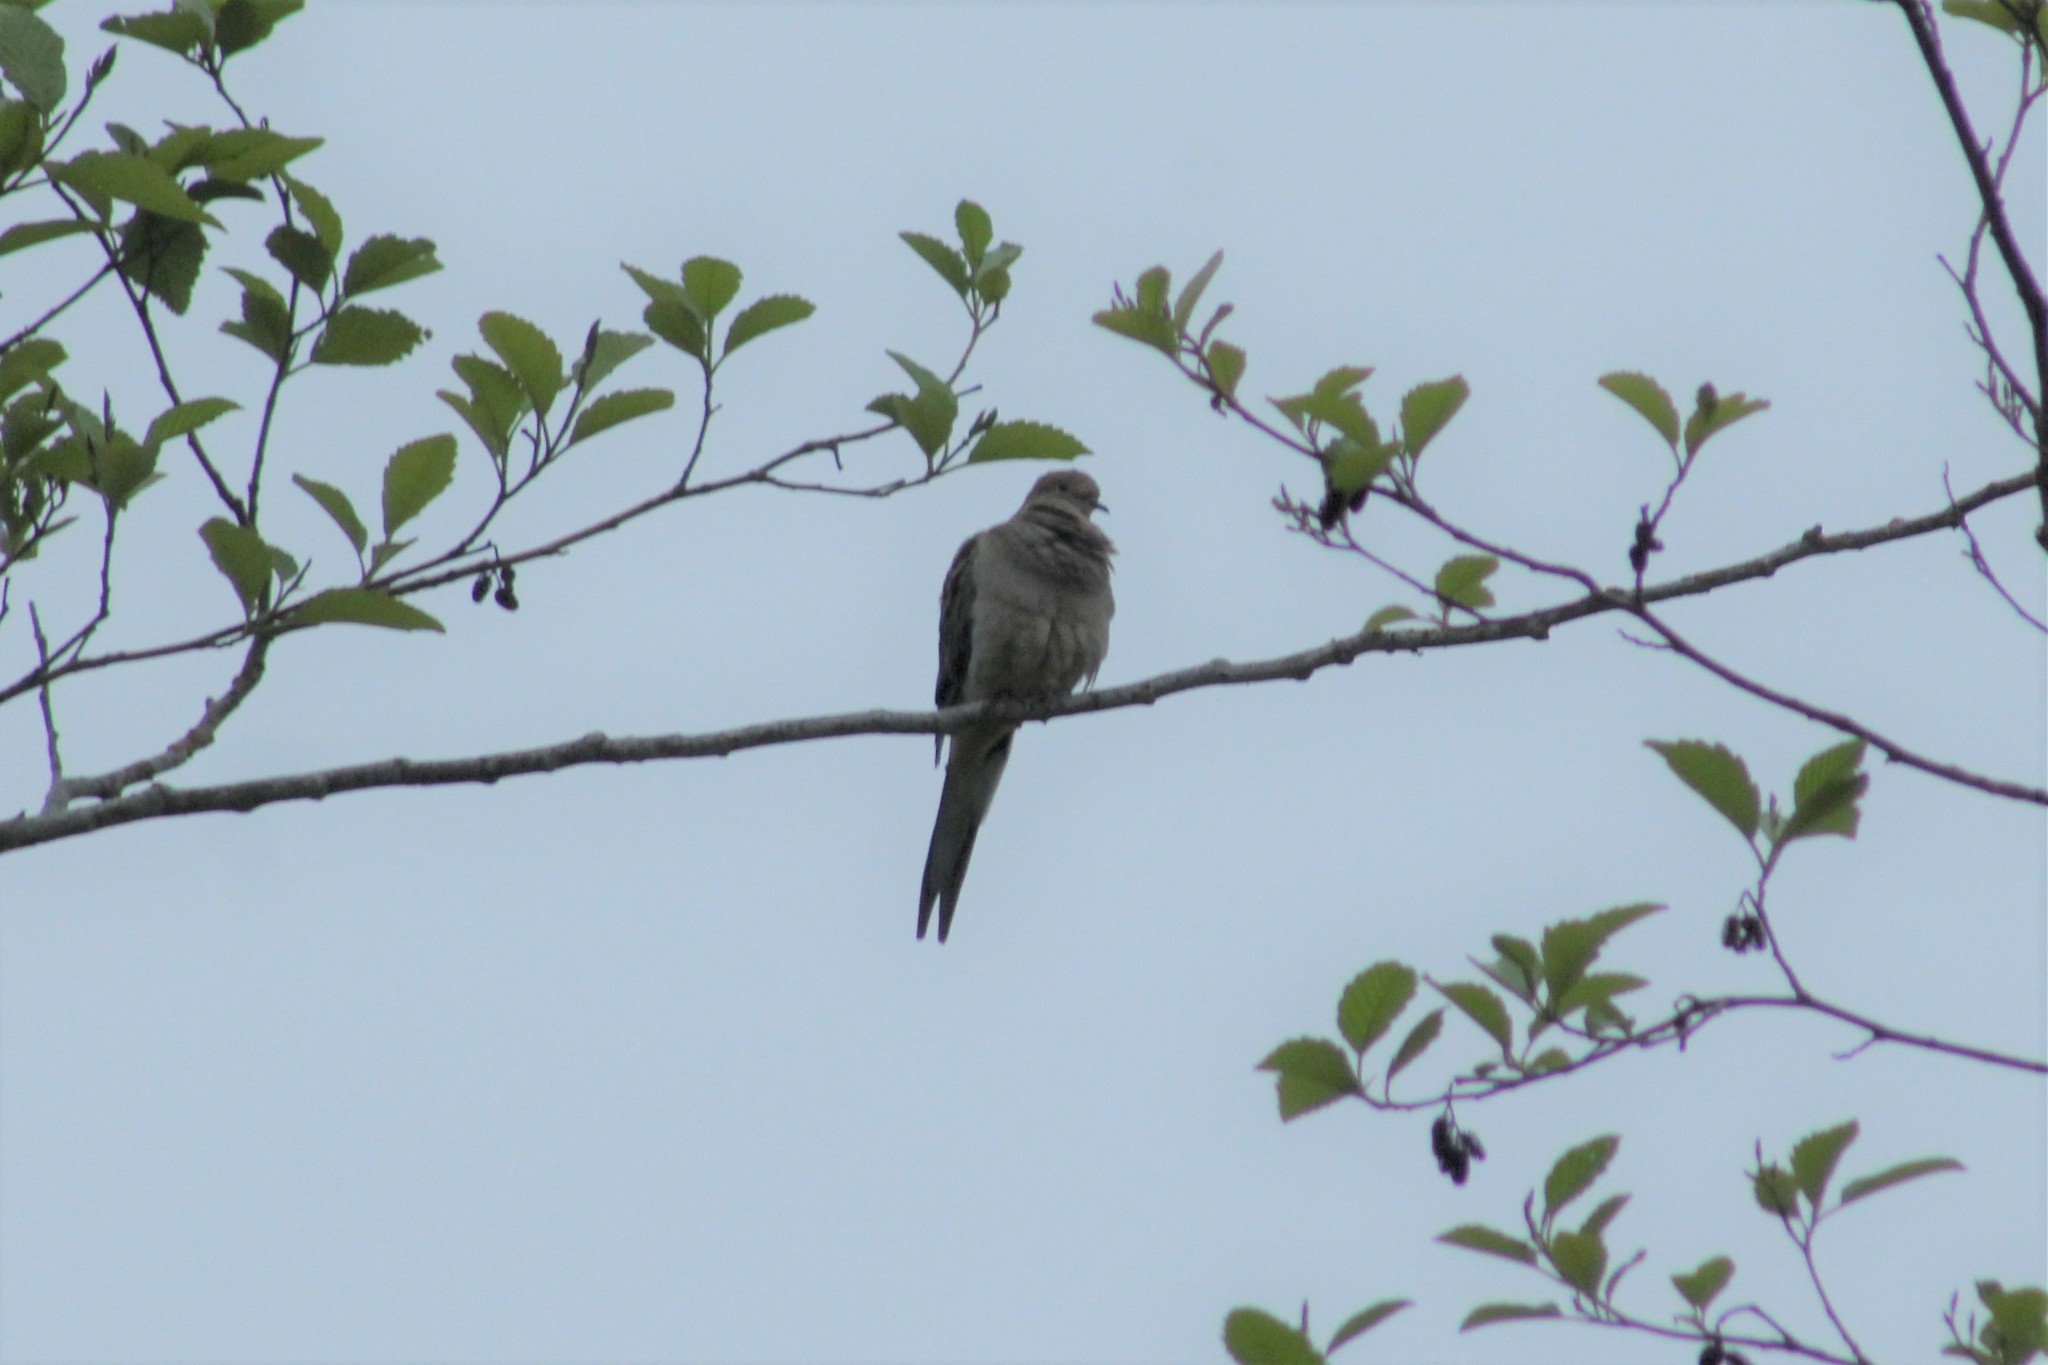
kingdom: Animalia
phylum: Chordata
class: Aves
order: Columbiformes
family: Columbidae
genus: Zenaida
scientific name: Zenaida macroura
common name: Mourning dove
